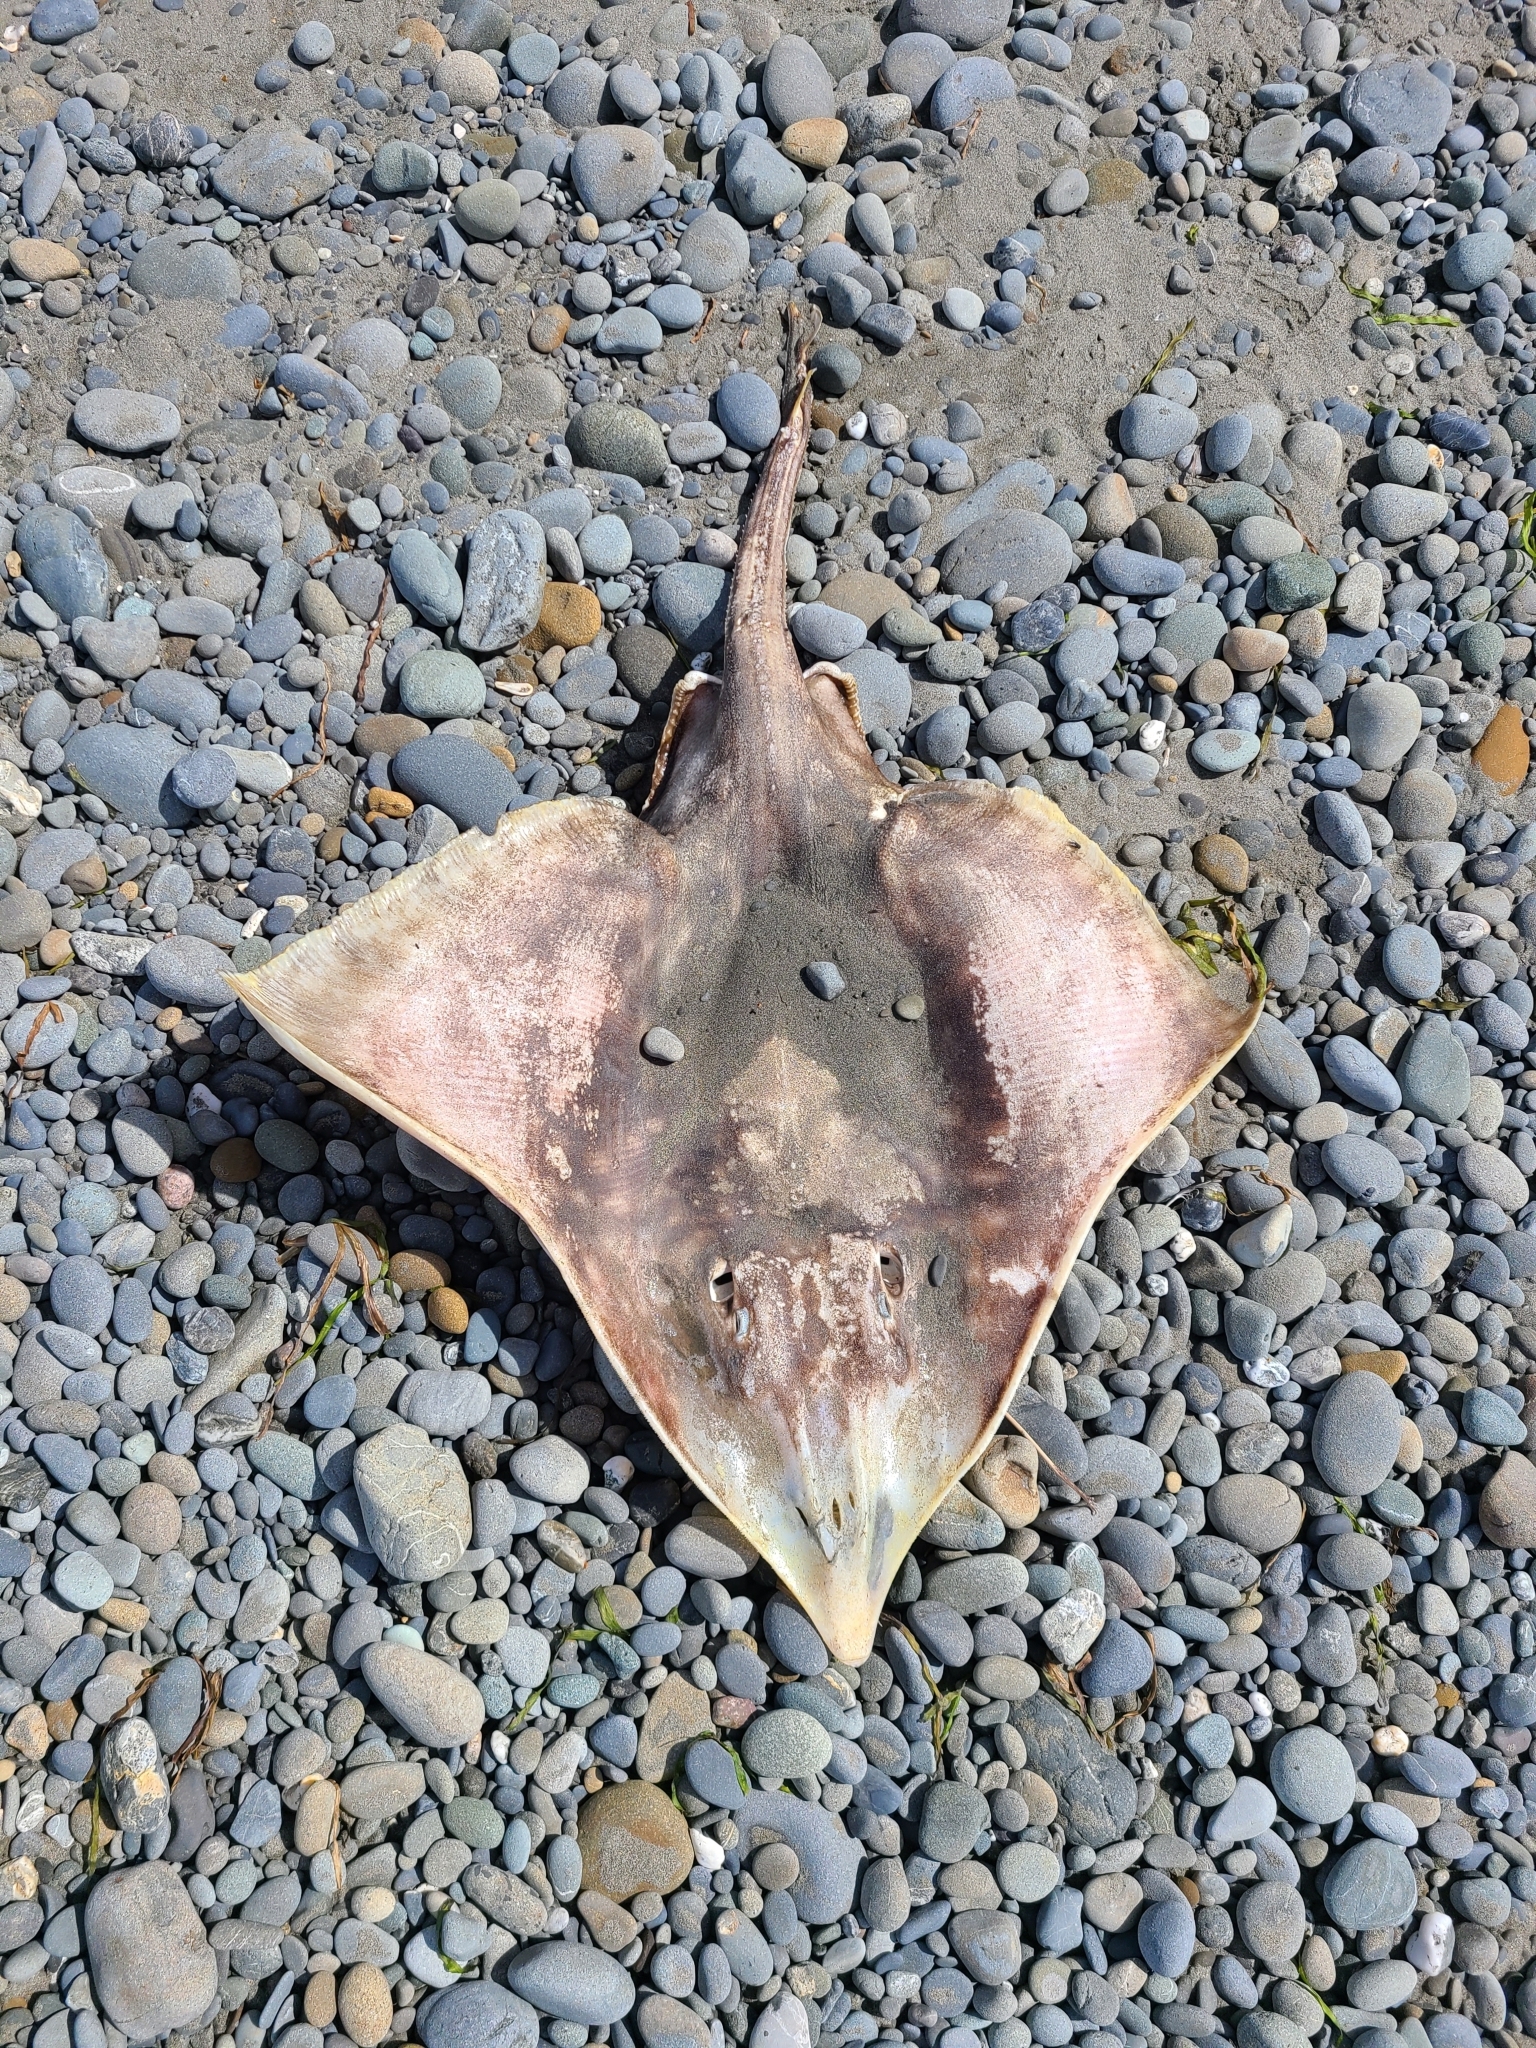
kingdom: Animalia
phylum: Chordata
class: Elasmobranchii
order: Rajiformes
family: Rajidae
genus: Beringraja
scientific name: Beringraja binoculata
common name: Big skate
